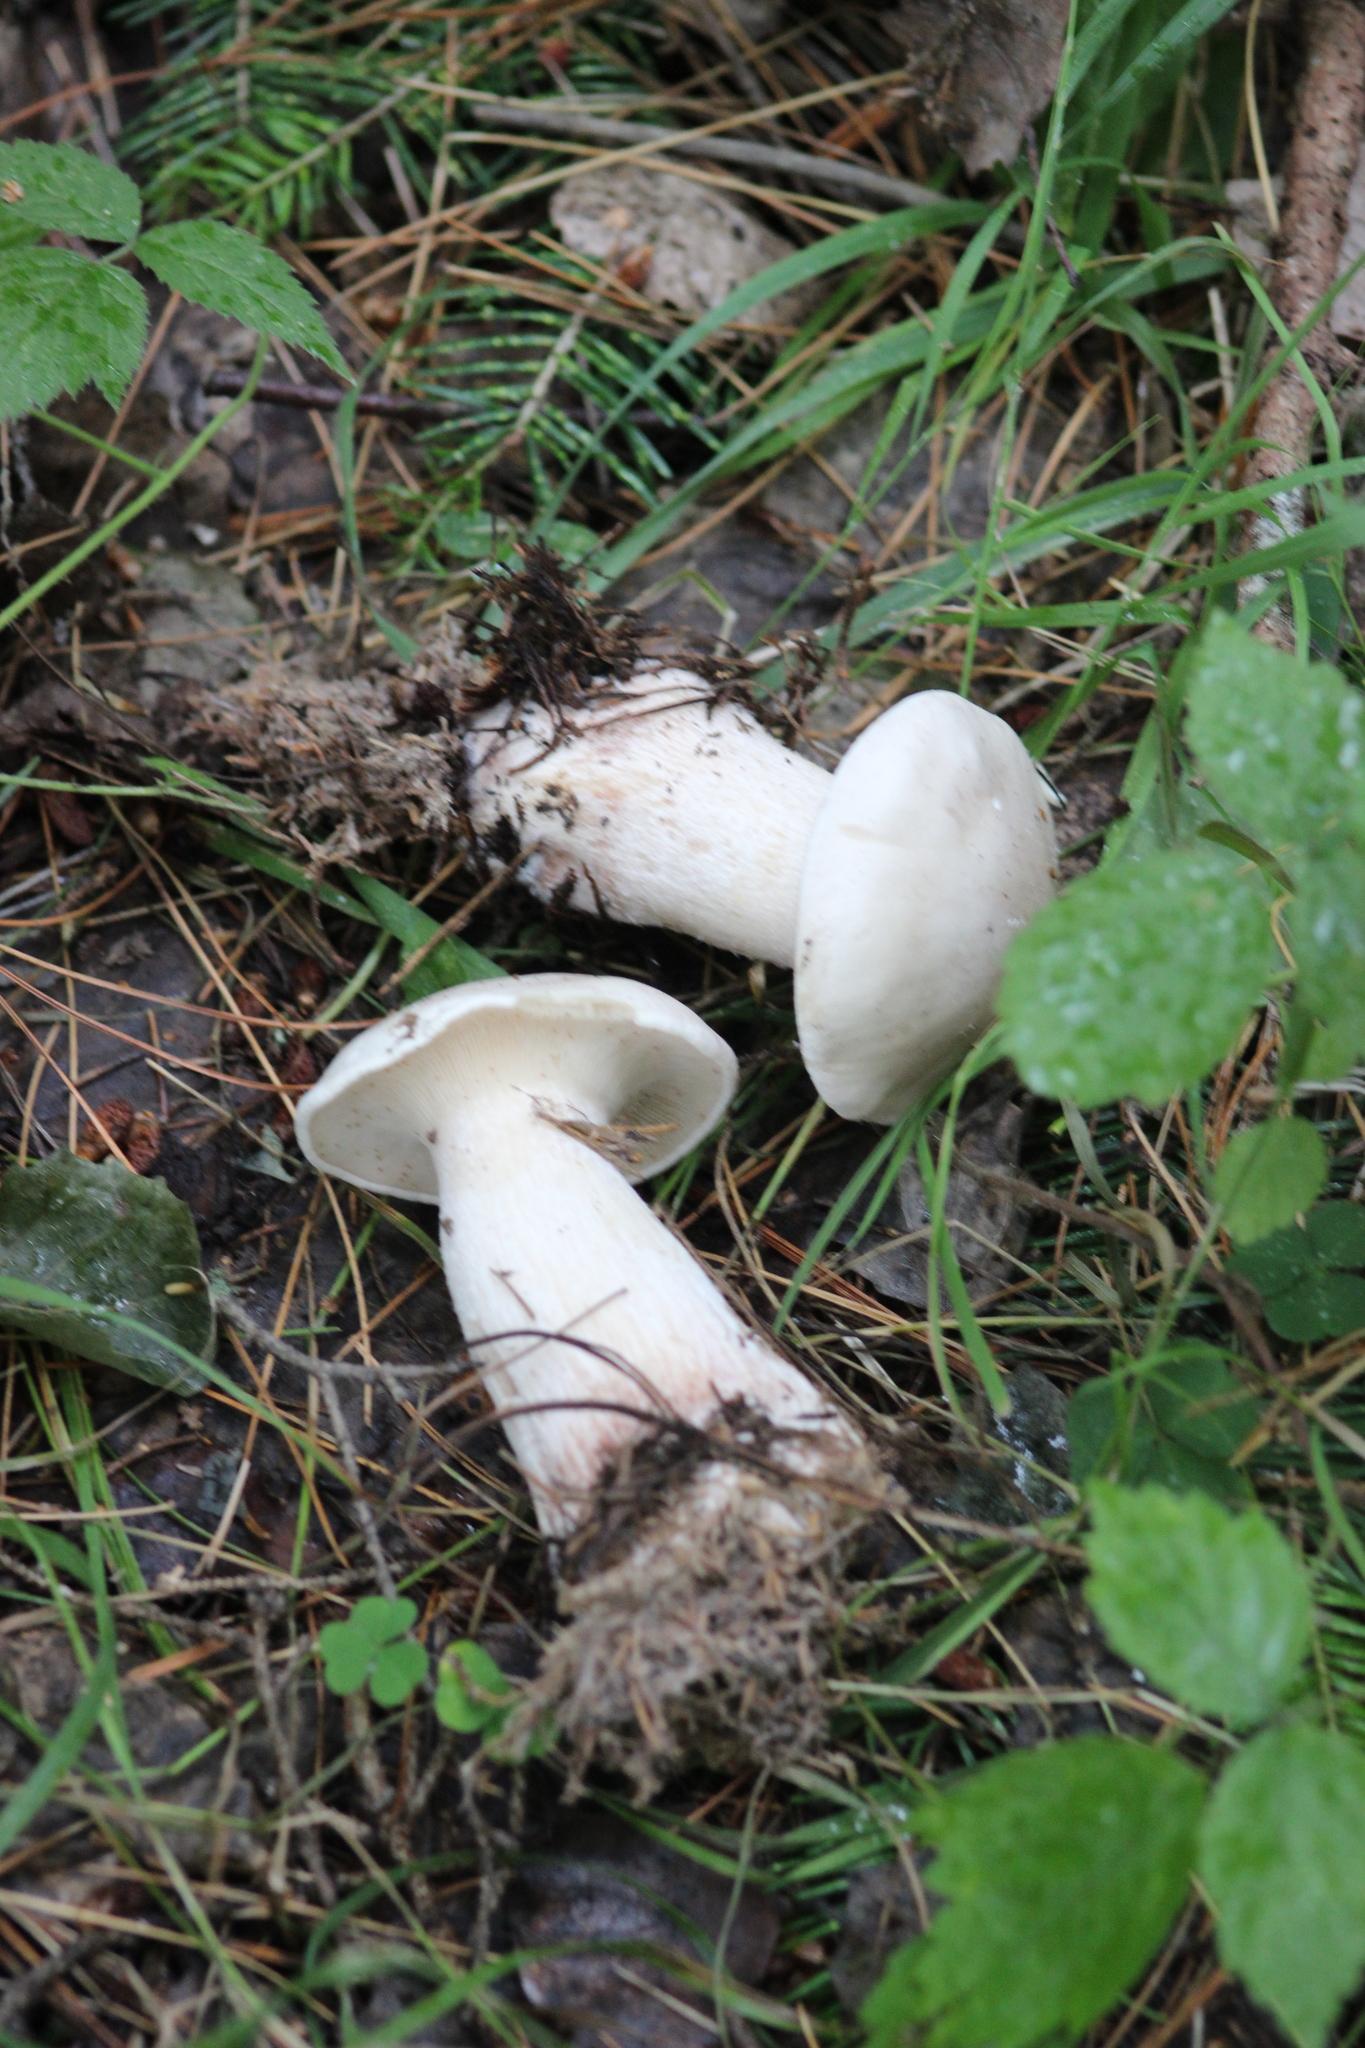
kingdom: Fungi
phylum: Basidiomycota
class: Agaricomycetes
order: Agaricales
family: Entolomataceae
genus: Clitopilus
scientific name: Clitopilus prunulus
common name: The miller
